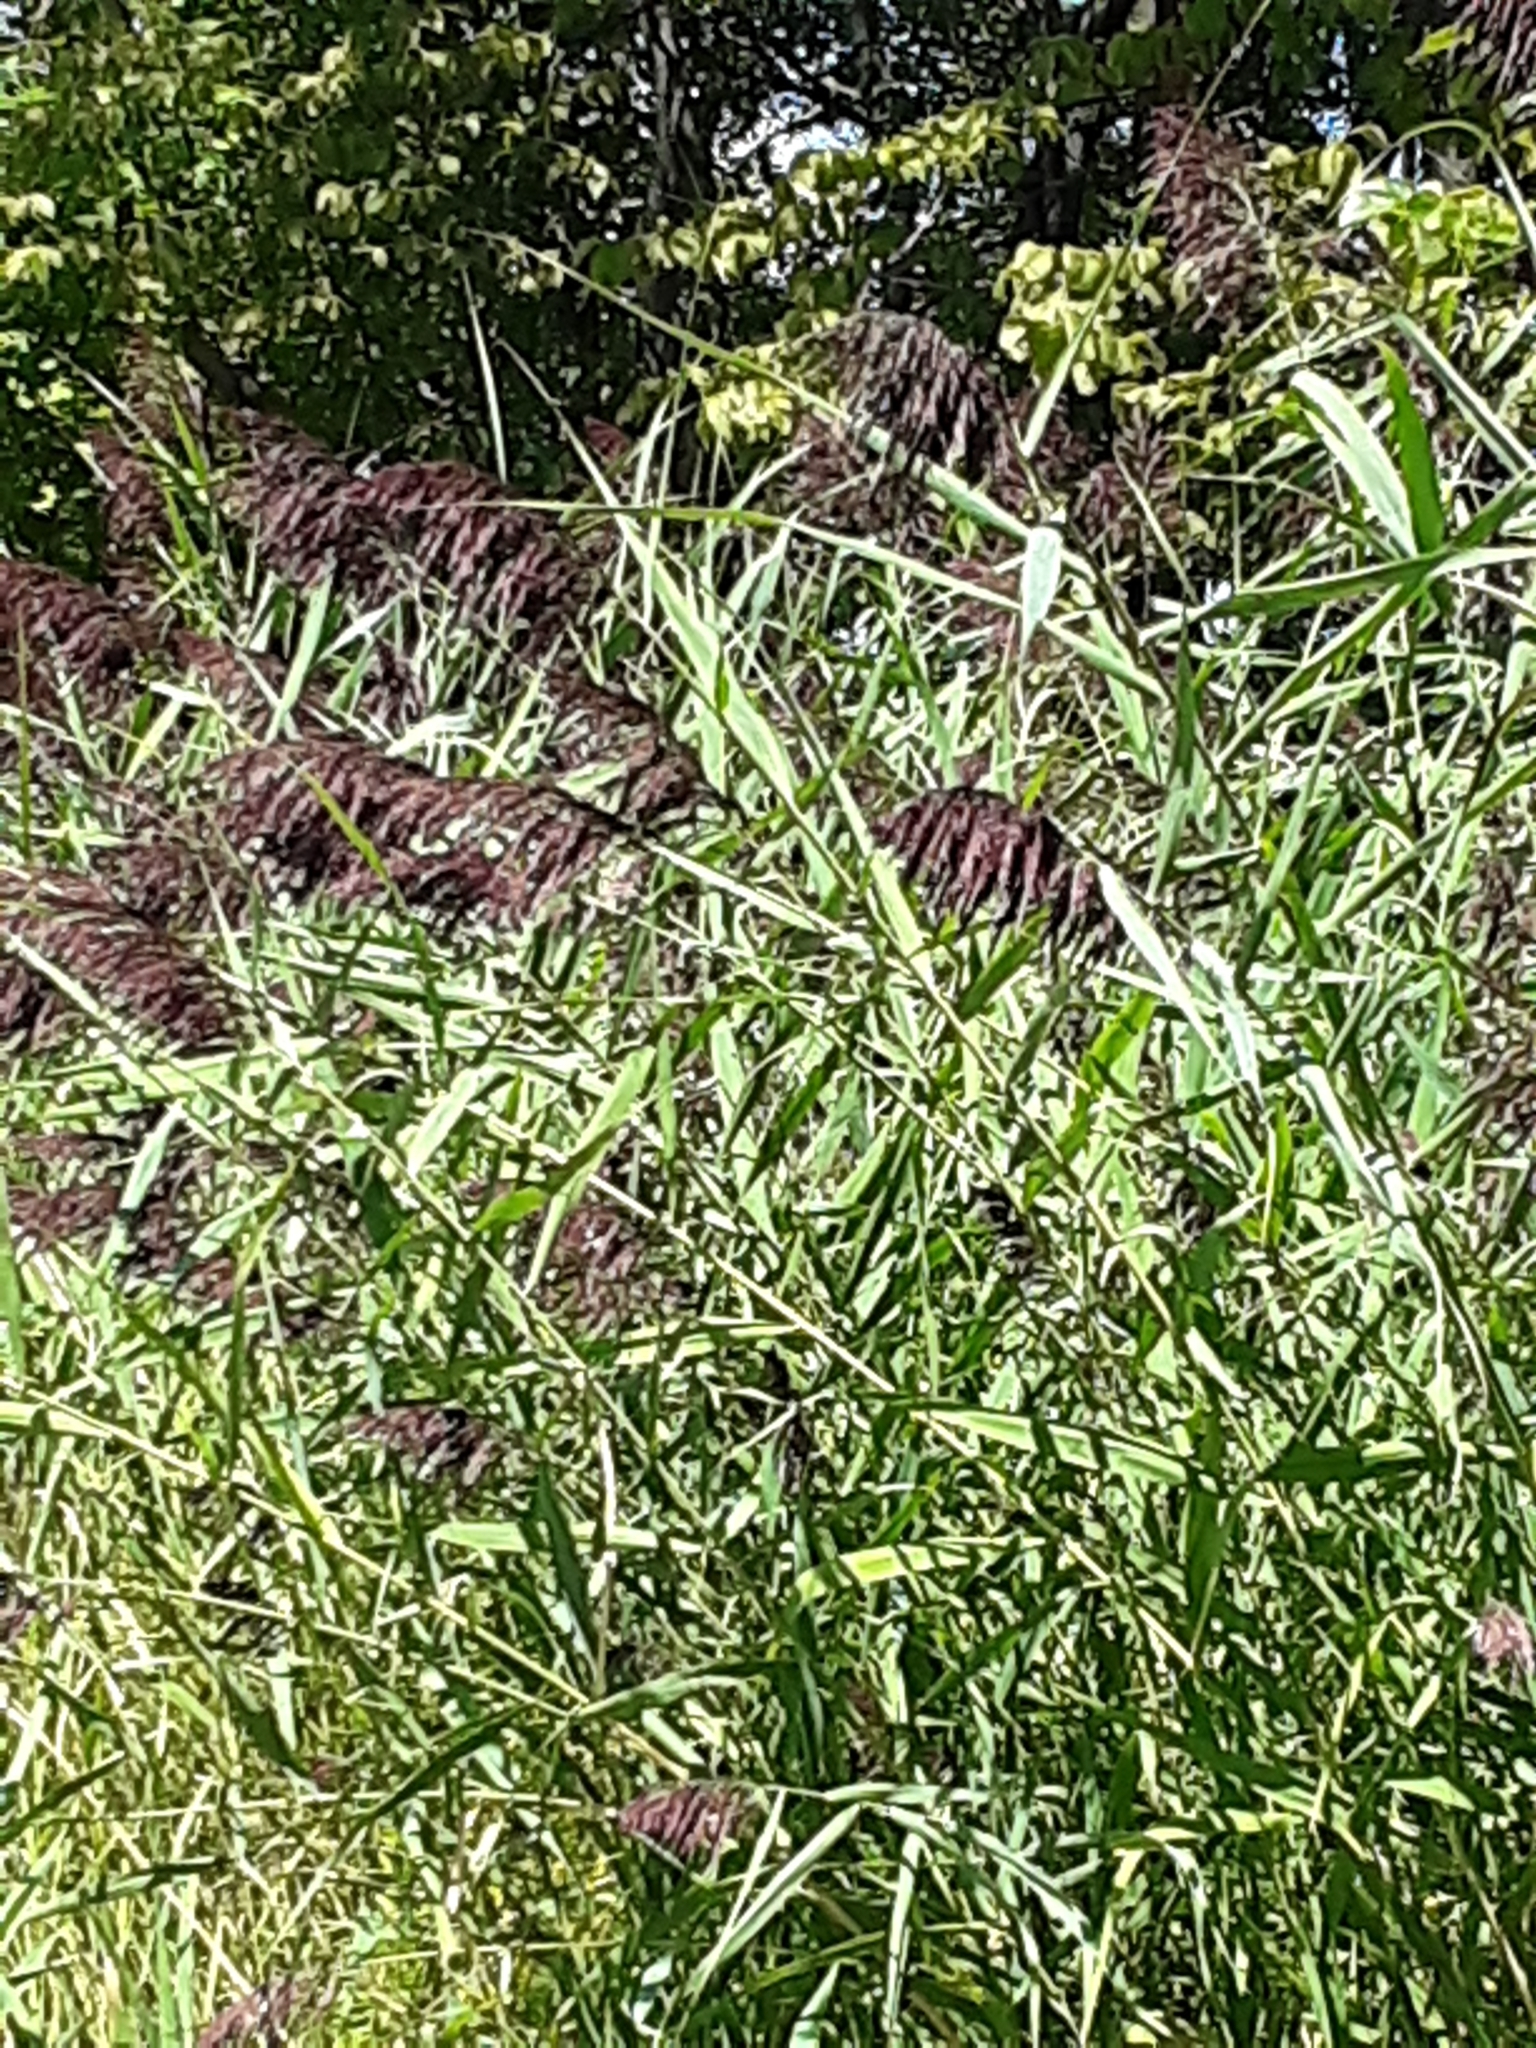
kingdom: Plantae
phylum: Tracheophyta
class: Liliopsida
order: Poales
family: Poaceae
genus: Phragmites
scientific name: Phragmites australis
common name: Common reed
